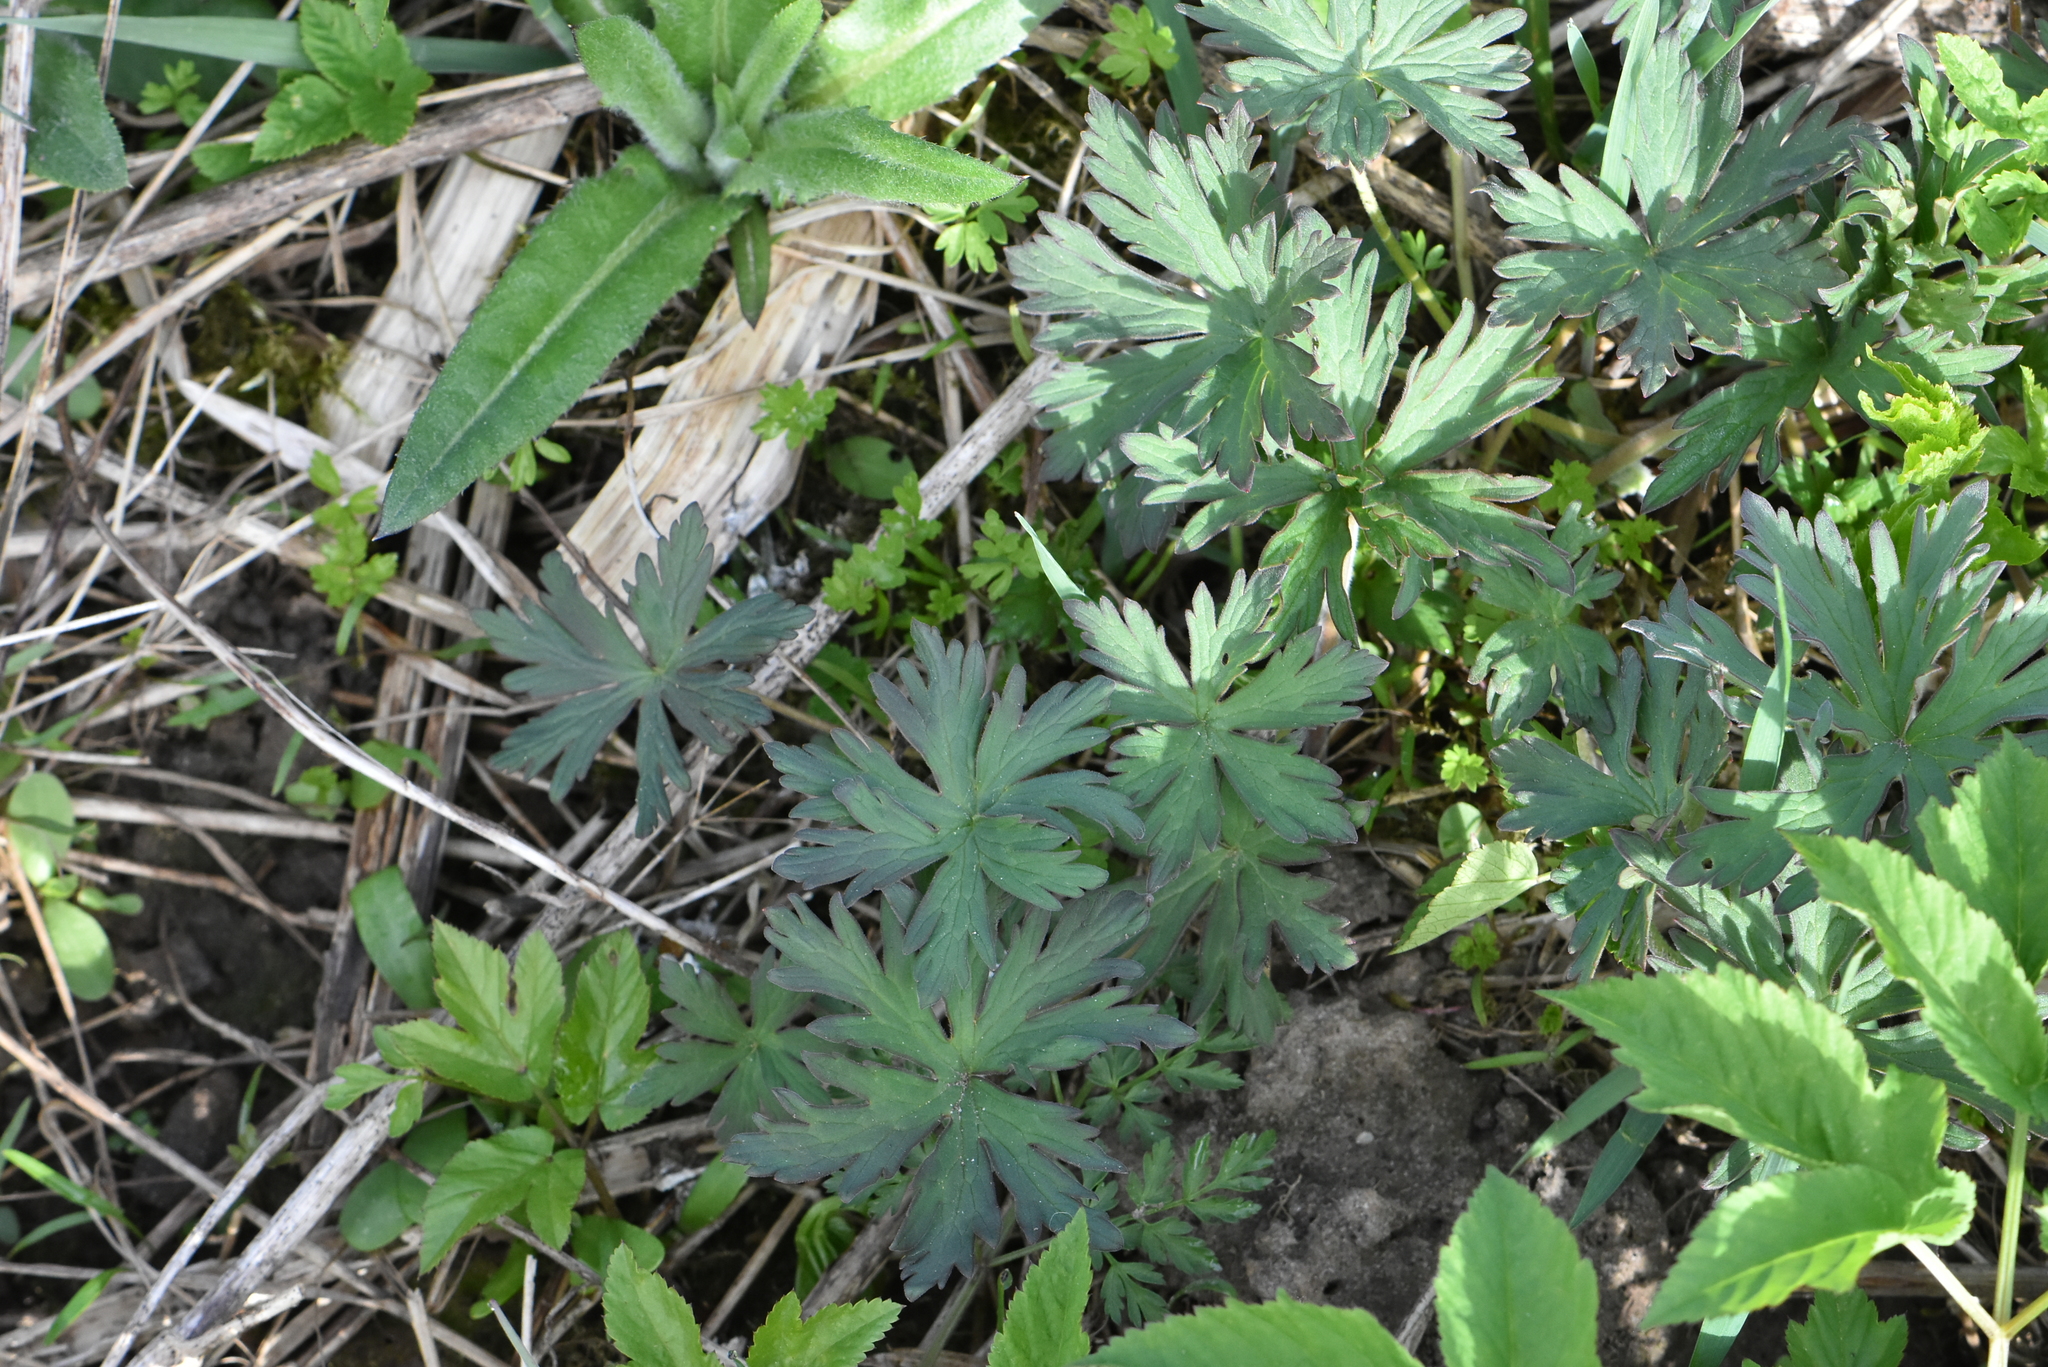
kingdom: Plantae
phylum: Tracheophyta
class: Magnoliopsida
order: Geraniales
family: Geraniaceae
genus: Geranium
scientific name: Geranium pratense
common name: Meadow crane's-bill
